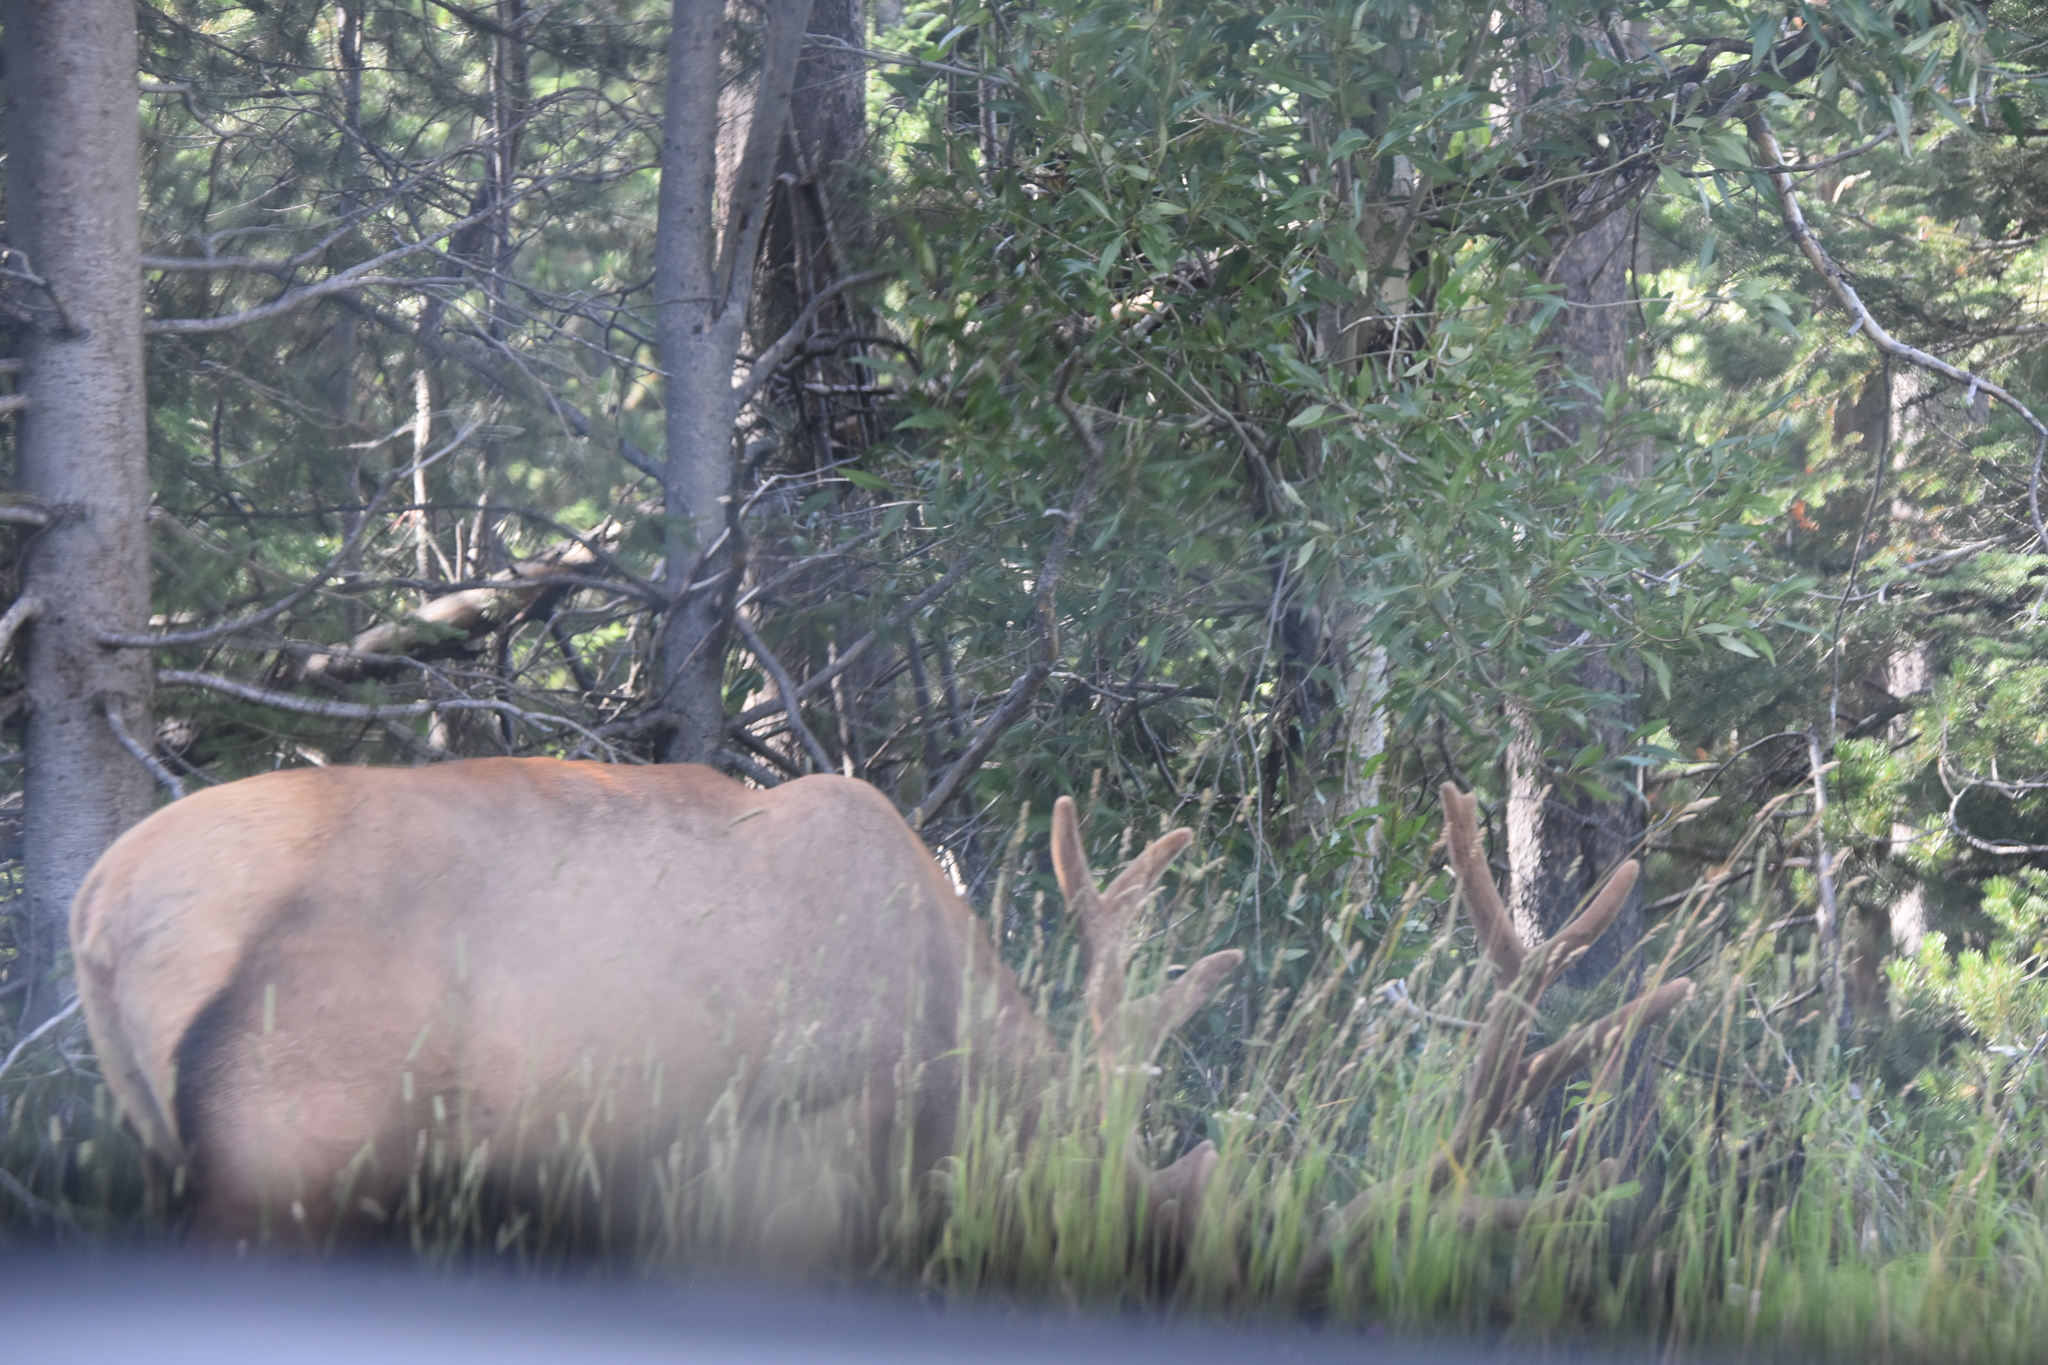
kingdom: Animalia
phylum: Chordata
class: Mammalia
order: Artiodactyla
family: Cervidae
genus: Cervus
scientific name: Cervus elaphus
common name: Red deer
